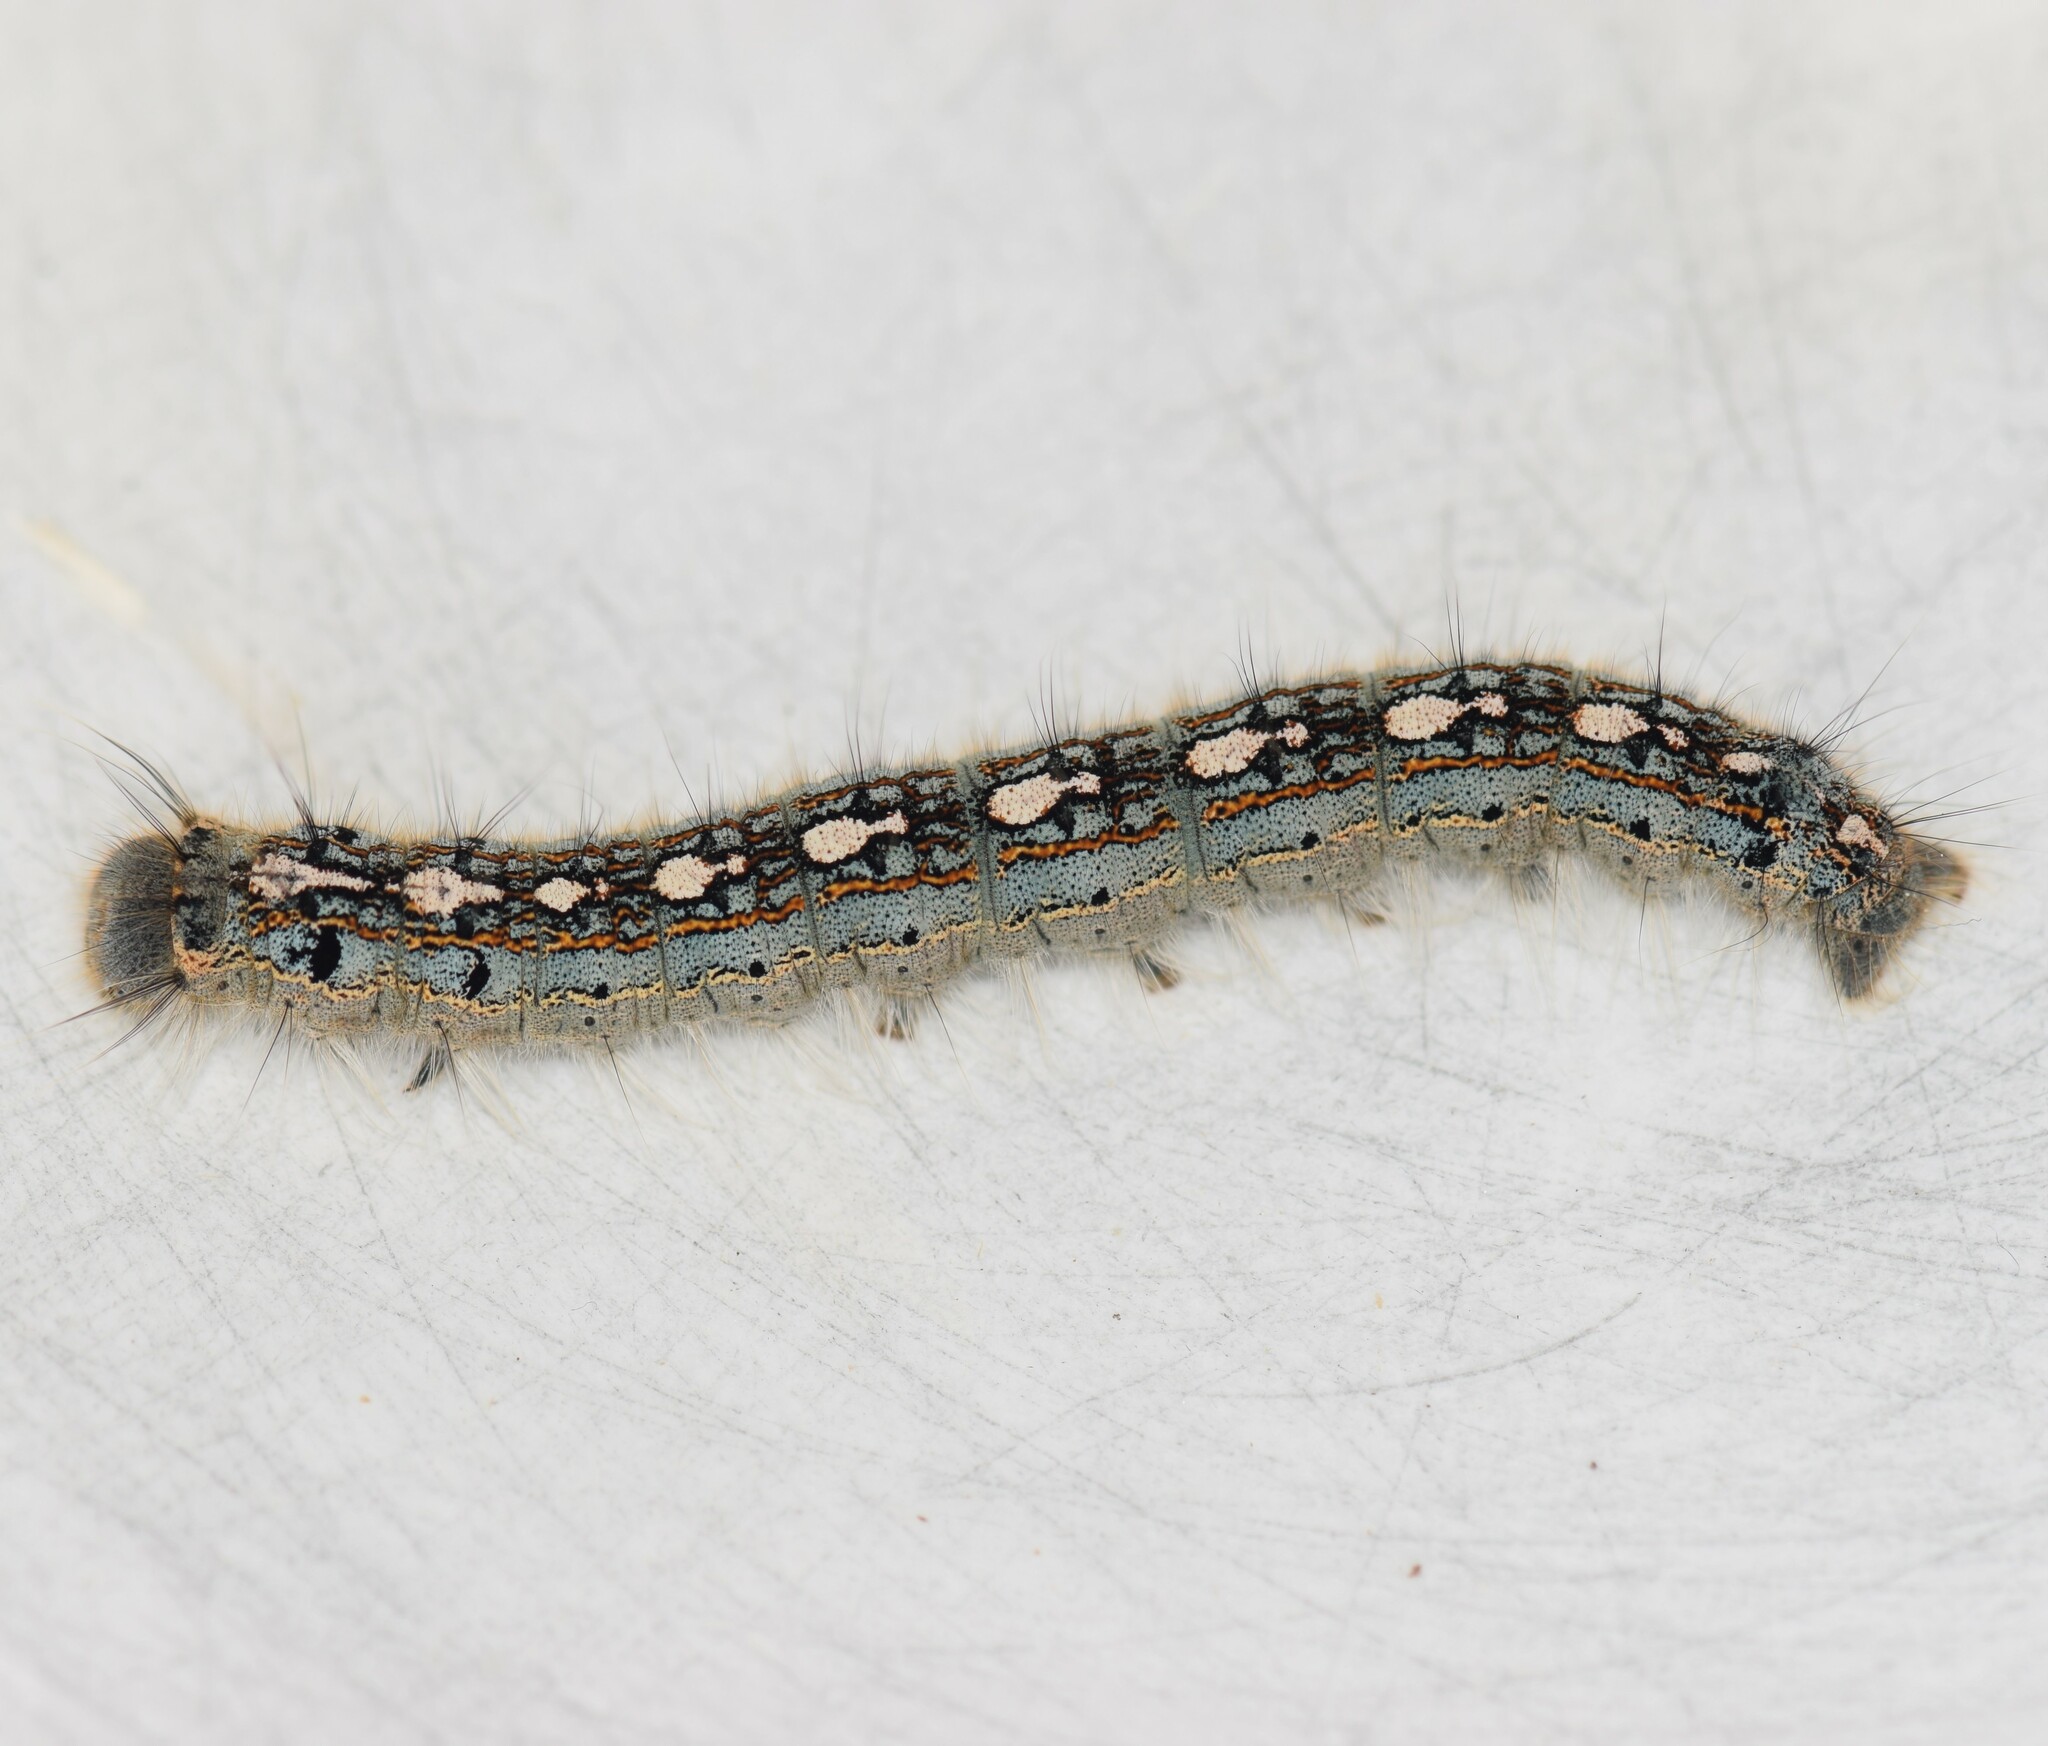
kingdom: Animalia
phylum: Arthropoda
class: Insecta
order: Lepidoptera
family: Lasiocampidae
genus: Malacosoma
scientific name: Malacosoma disstria
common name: Forest tent caterpillar
